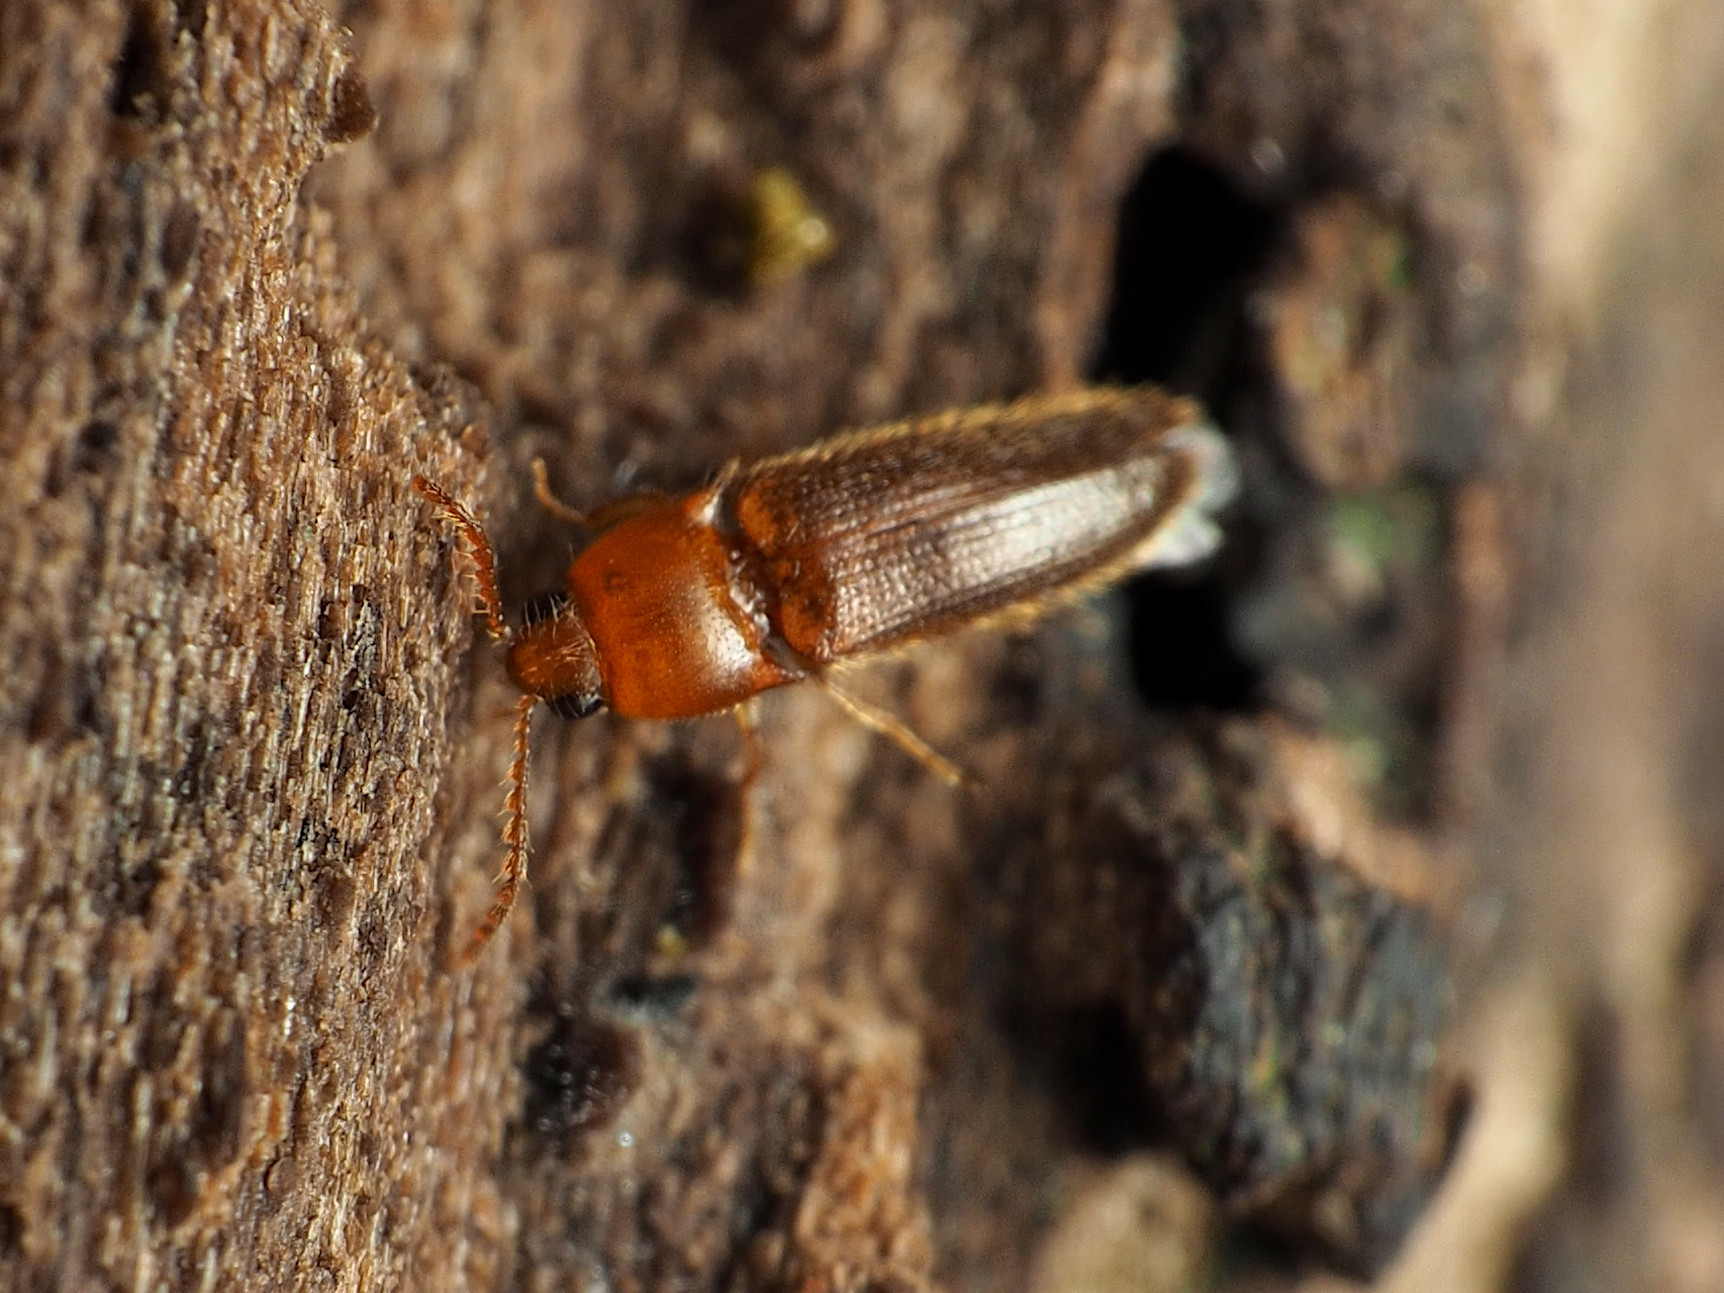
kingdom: Animalia
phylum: Arthropoda
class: Insecta
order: Coleoptera
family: Elateridae
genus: Ampedus
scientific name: Ampedus pusio
